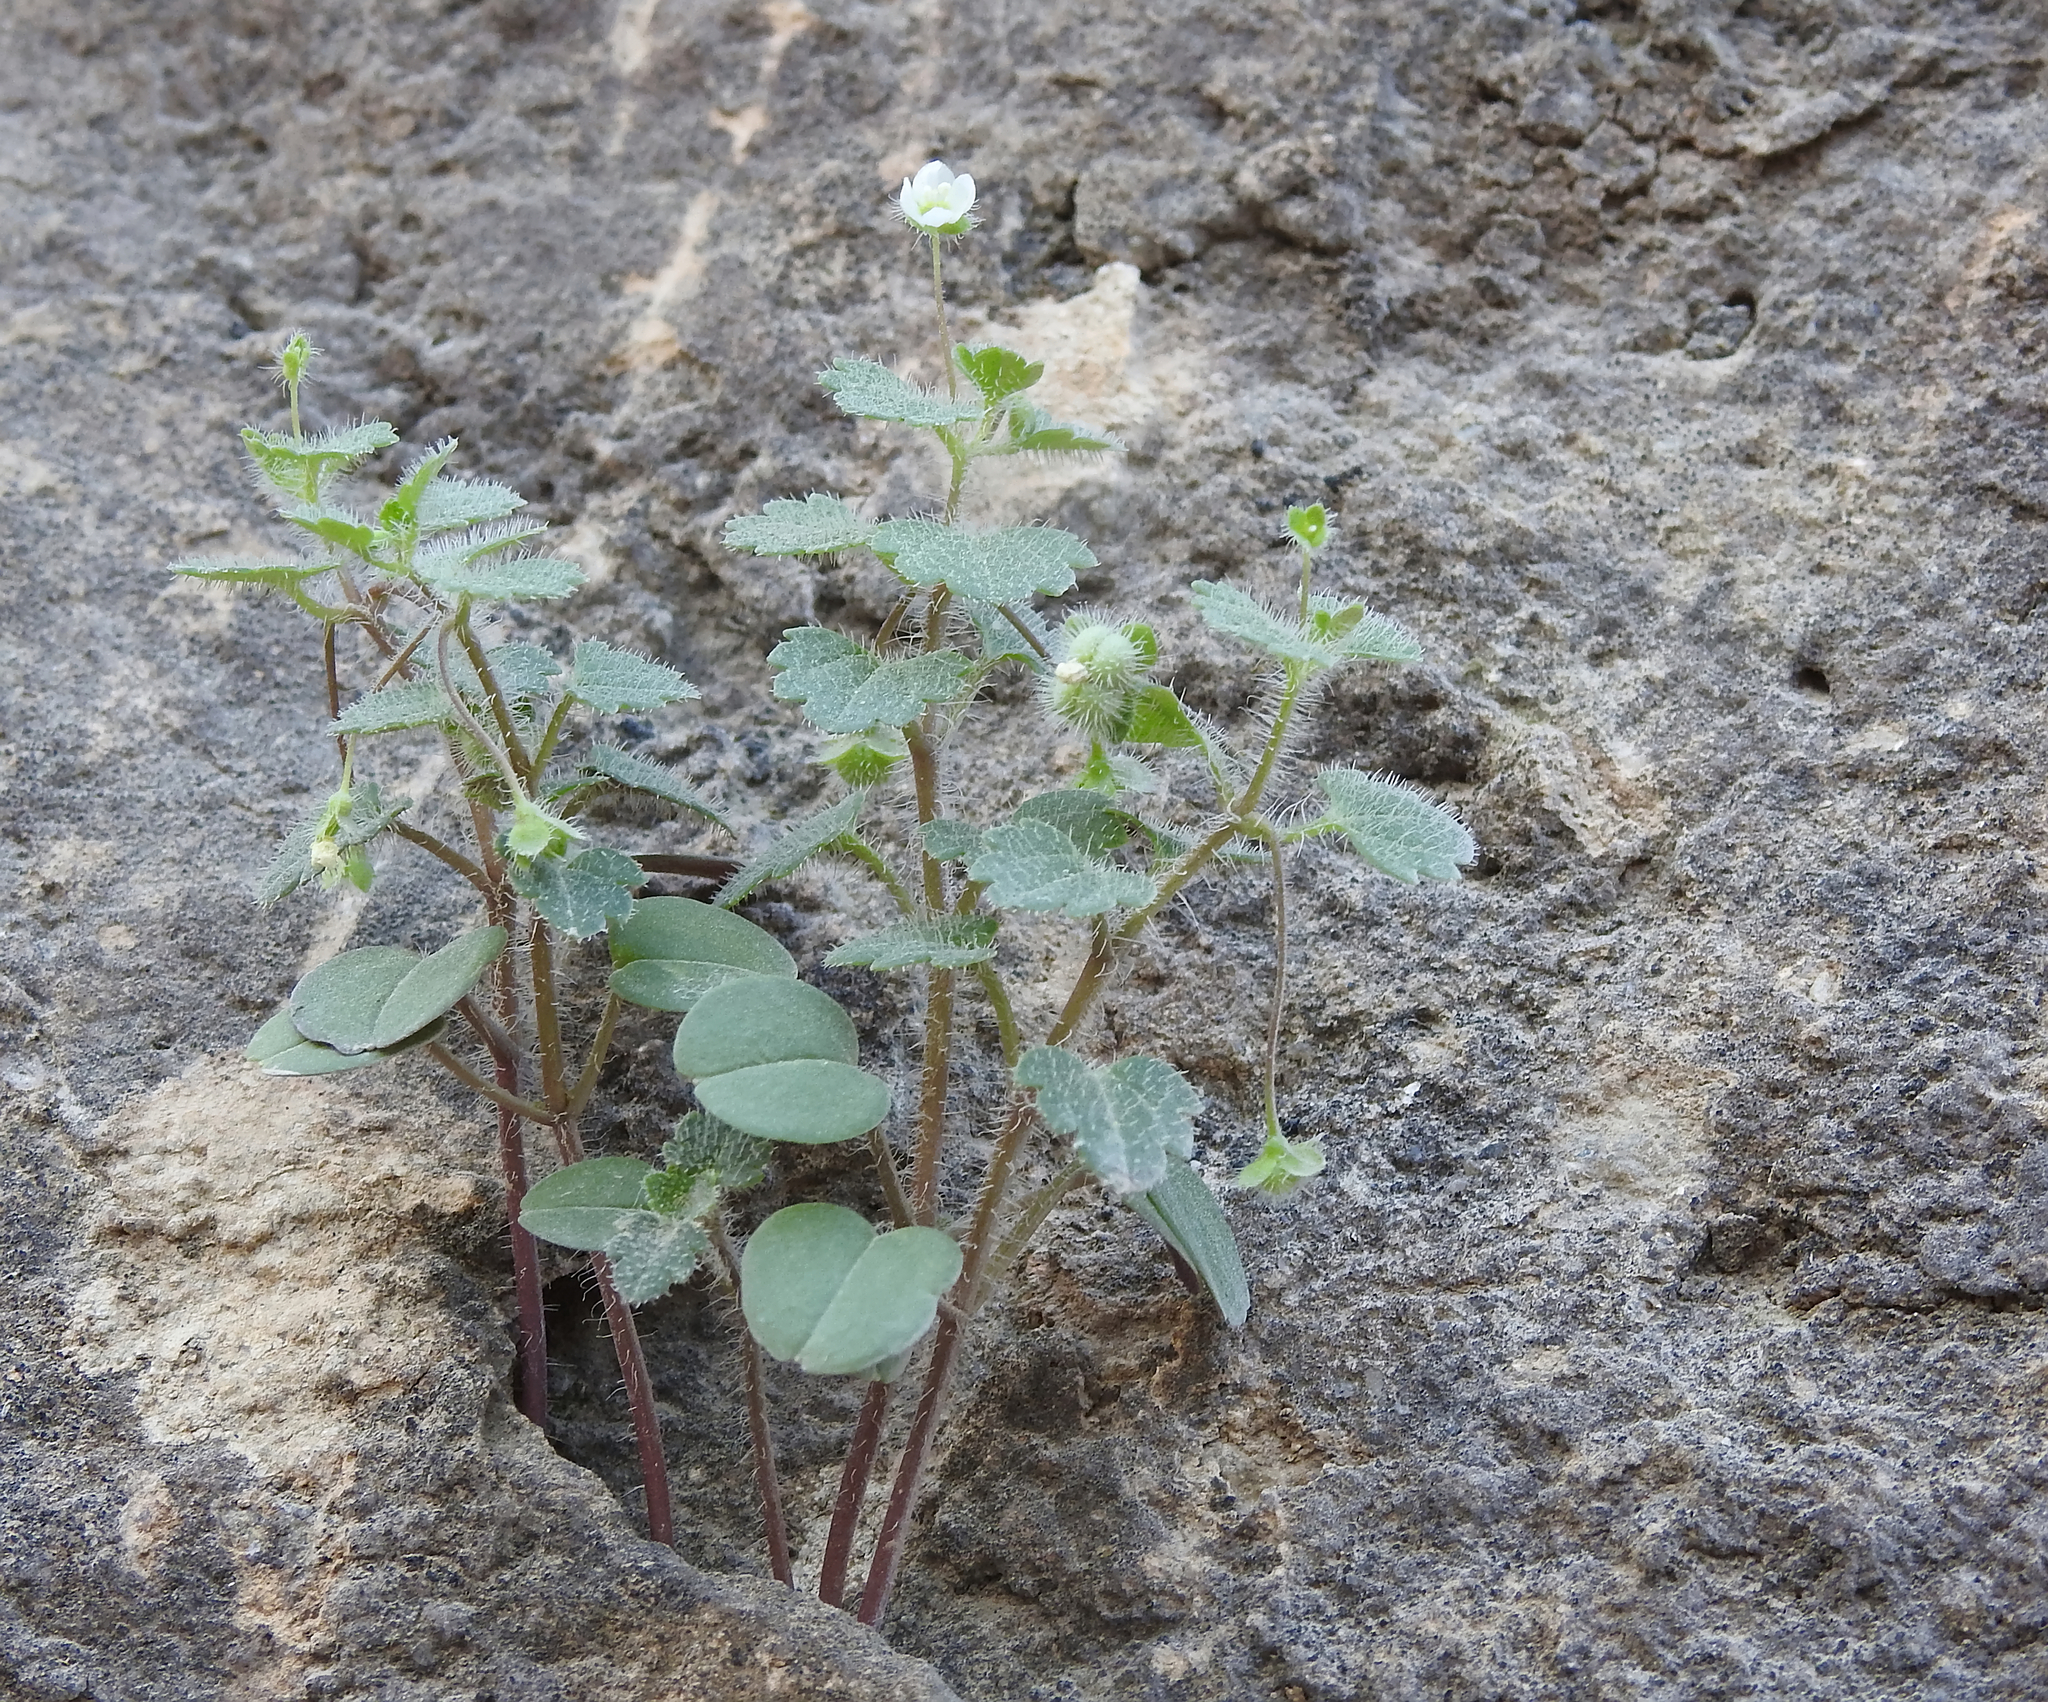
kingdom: Plantae
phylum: Tracheophyta
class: Magnoliopsida
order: Lamiales
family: Plantaginaceae
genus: Veronica
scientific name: Veronica cymbalaria
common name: Pale speedwell
